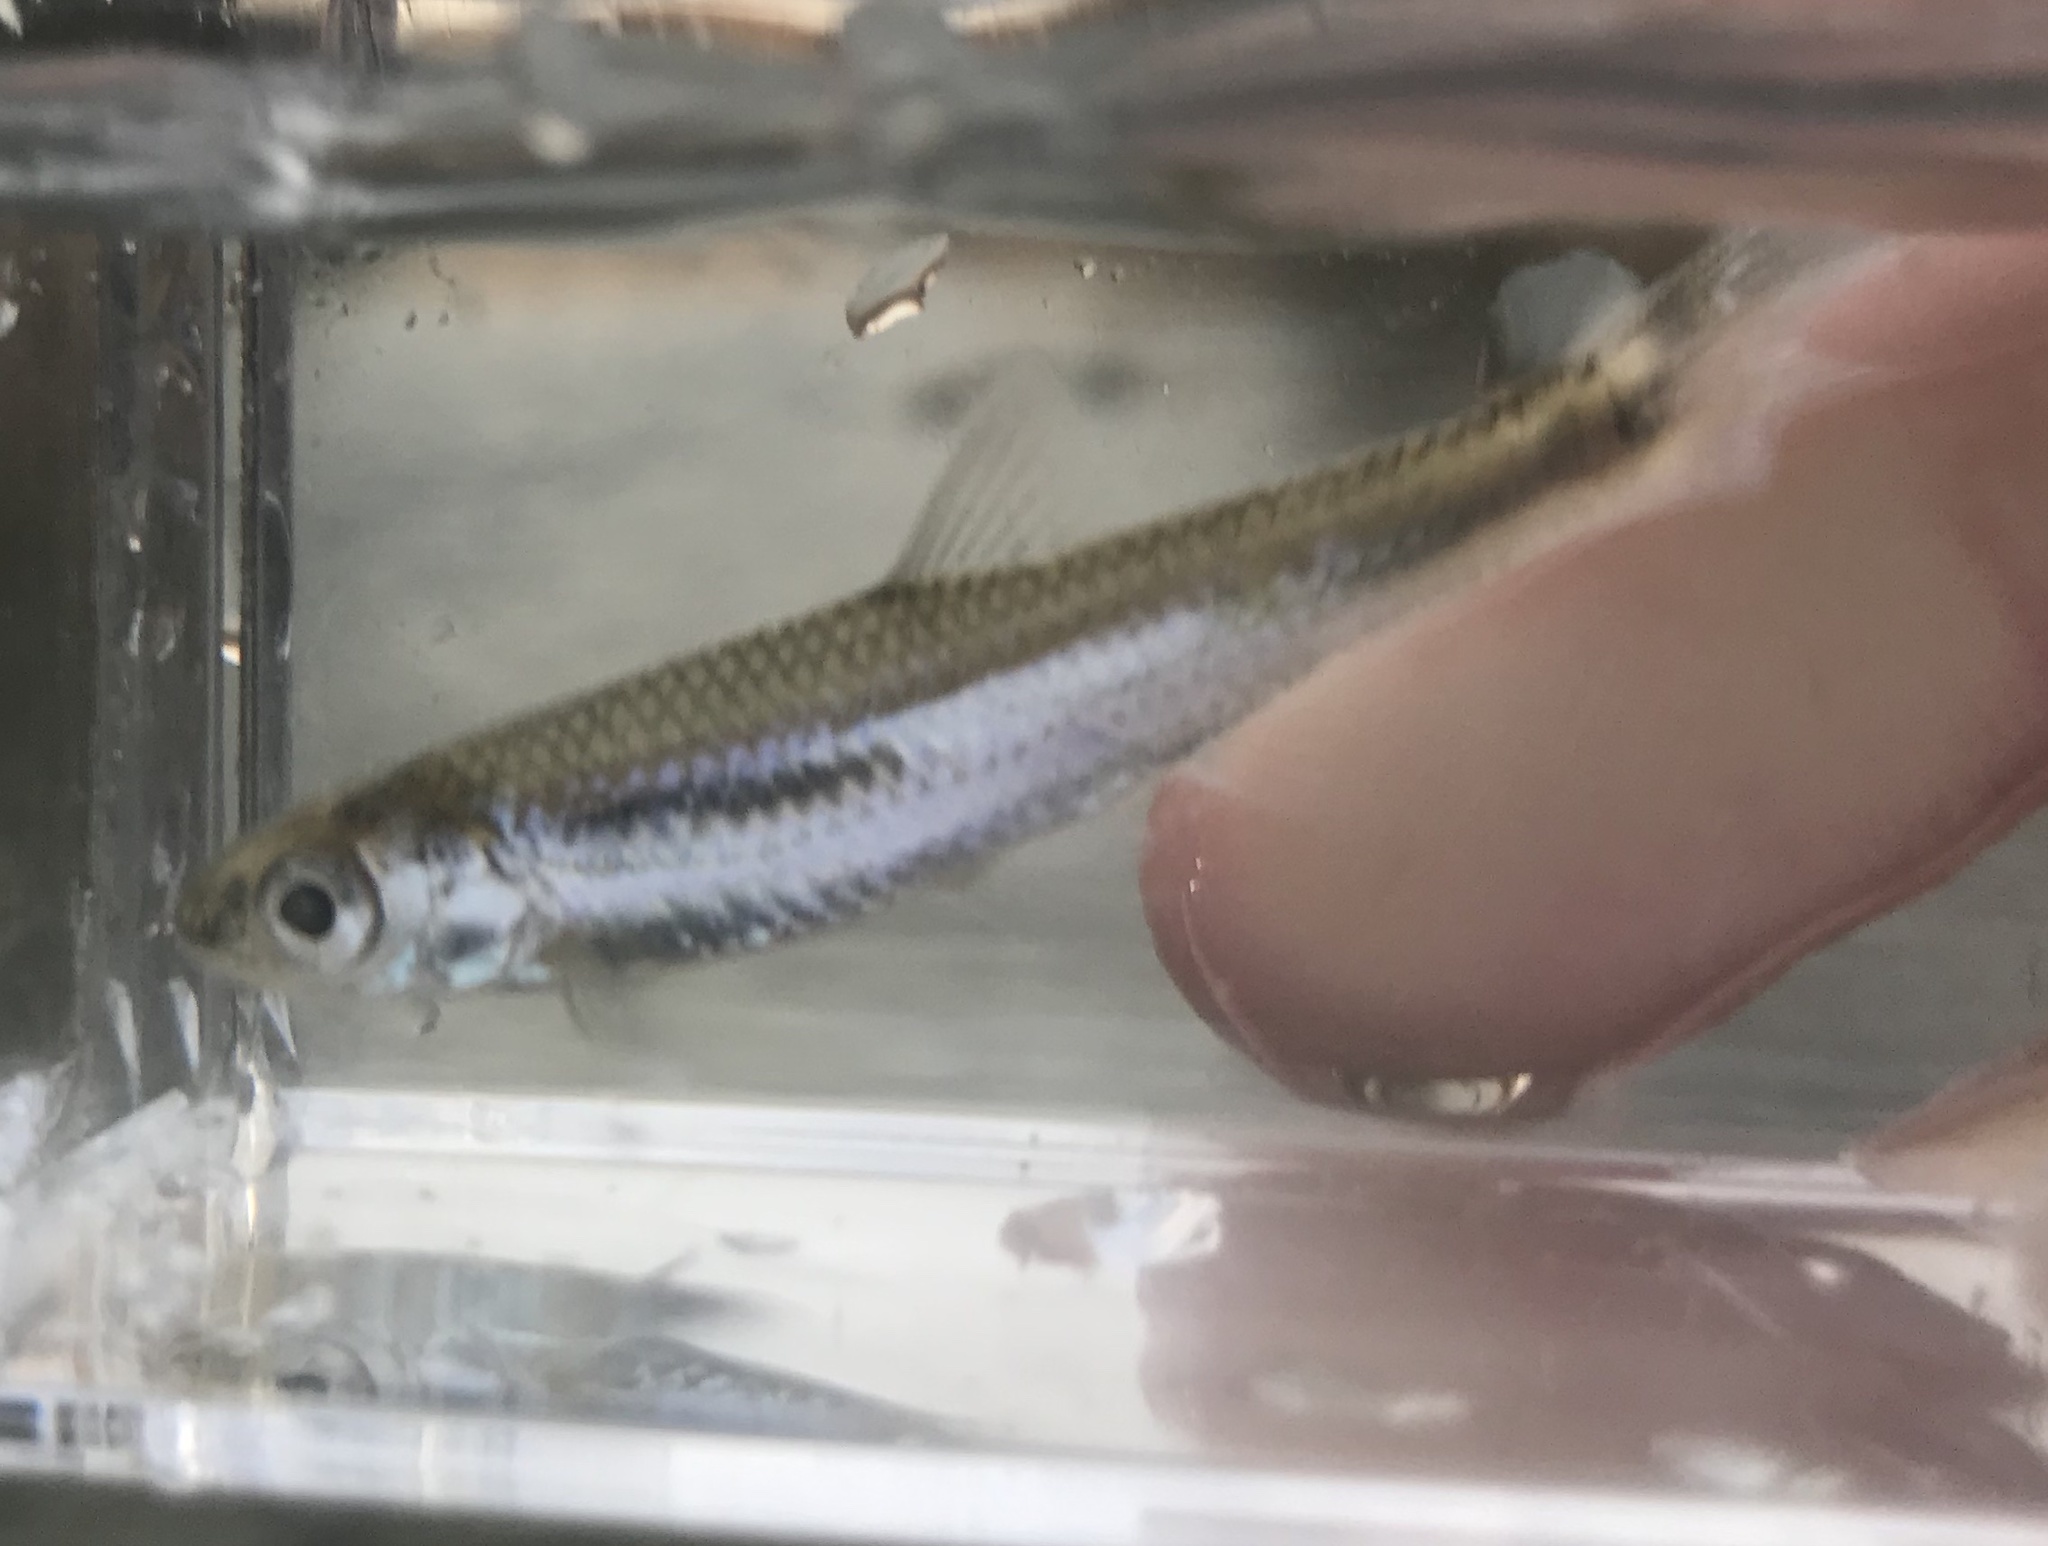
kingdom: Animalia
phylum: Chordata
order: Cypriniformes
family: Cyprinidae
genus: Notropis
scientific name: Notropis amabilis
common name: Texas shiner
